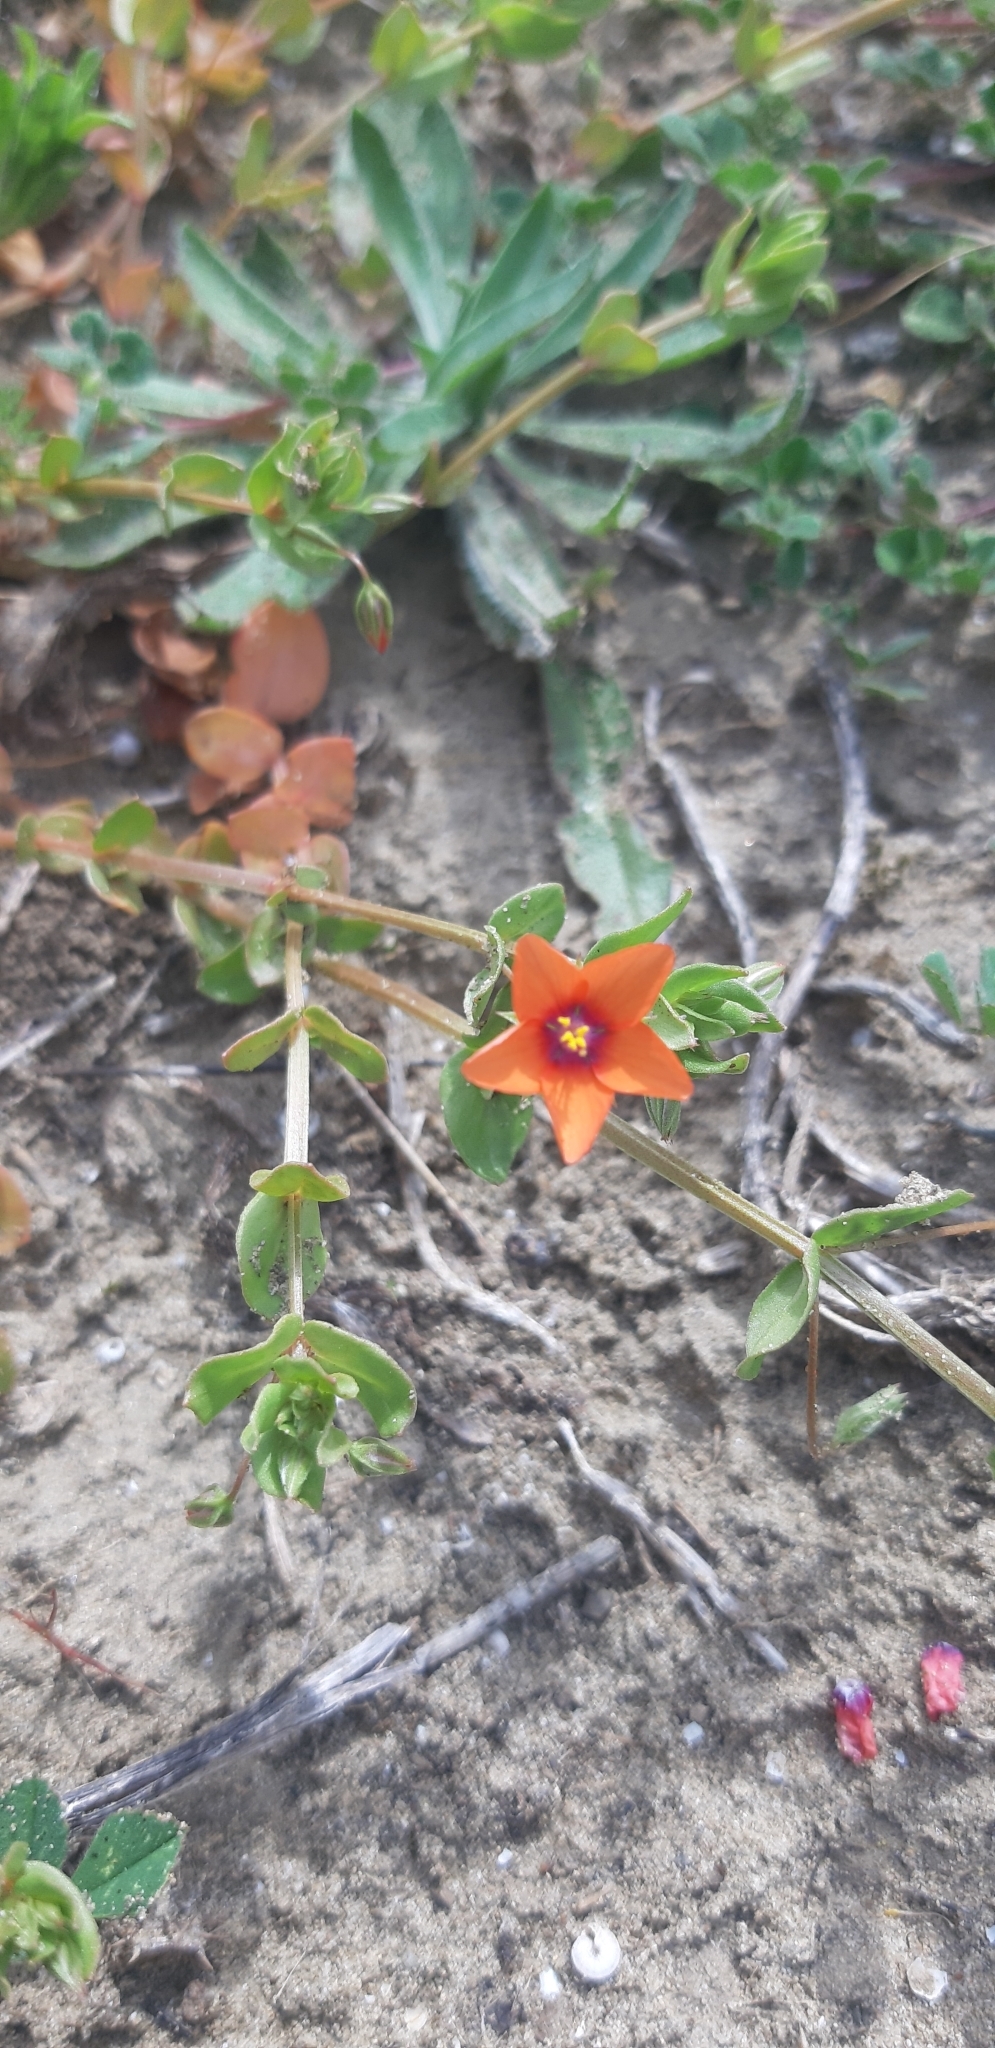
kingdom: Plantae
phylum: Tracheophyta
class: Magnoliopsida
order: Ericales
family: Primulaceae
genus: Lysimachia
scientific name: Lysimachia arvensis
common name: Scarlet pimpernel
